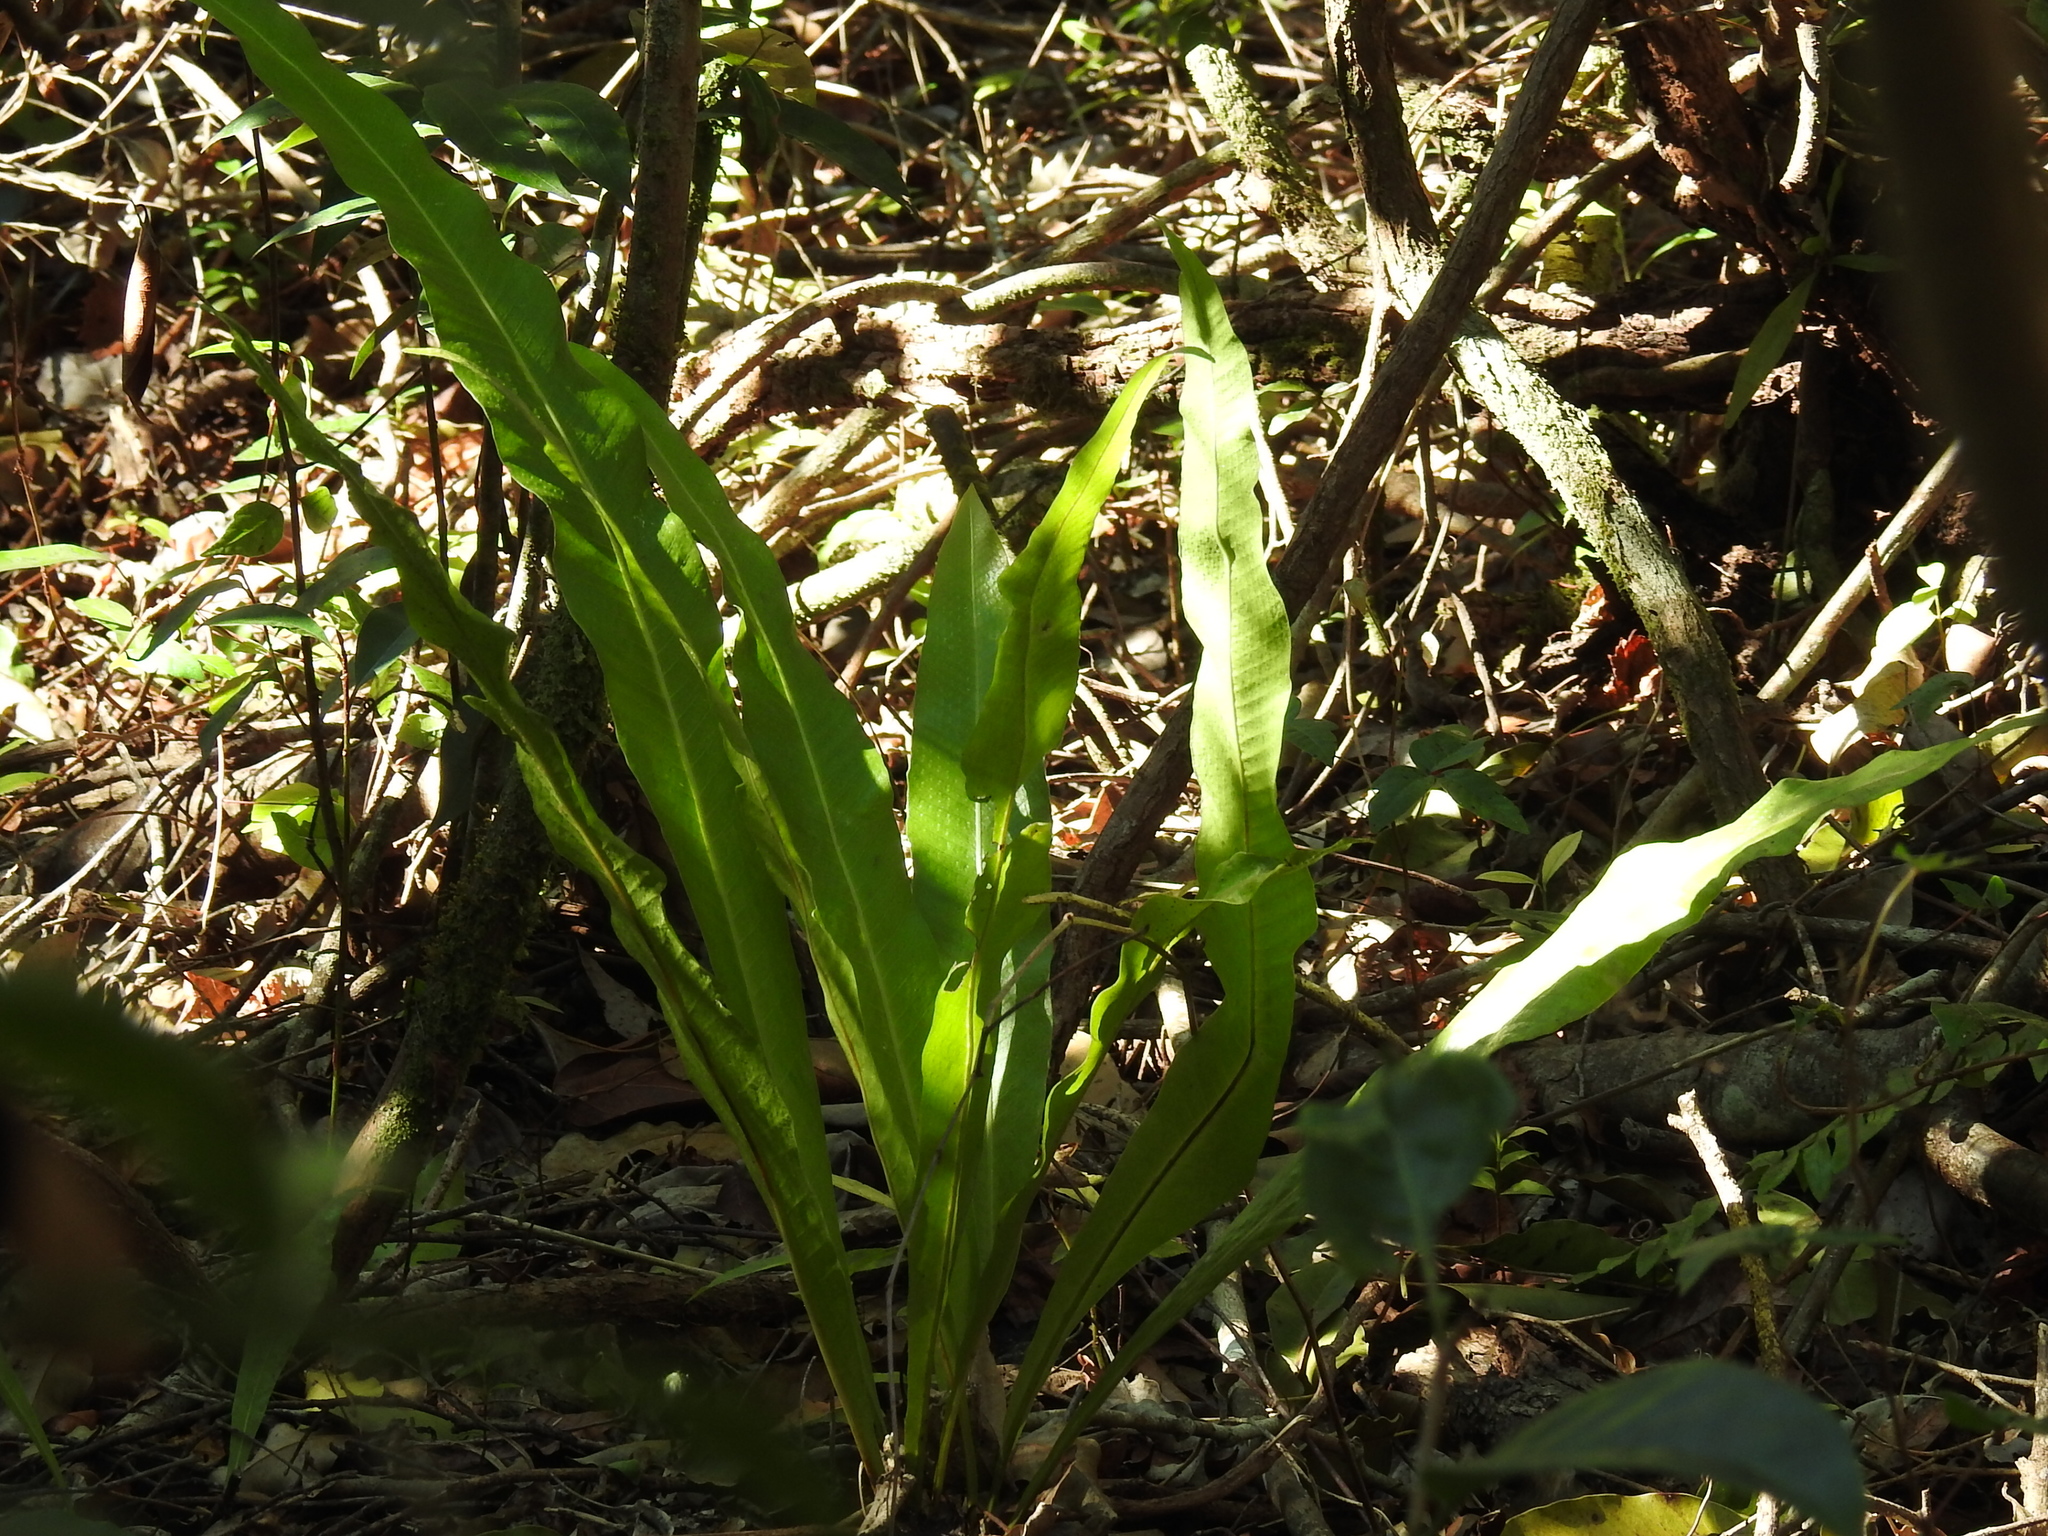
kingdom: Plantae
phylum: Tracheophyta
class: Polypodiopsida
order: Polypodiales
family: Polypodiaceae
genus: Campyloneurum
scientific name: Campyloneurum phyllitidis
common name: Cow-tongue fern
